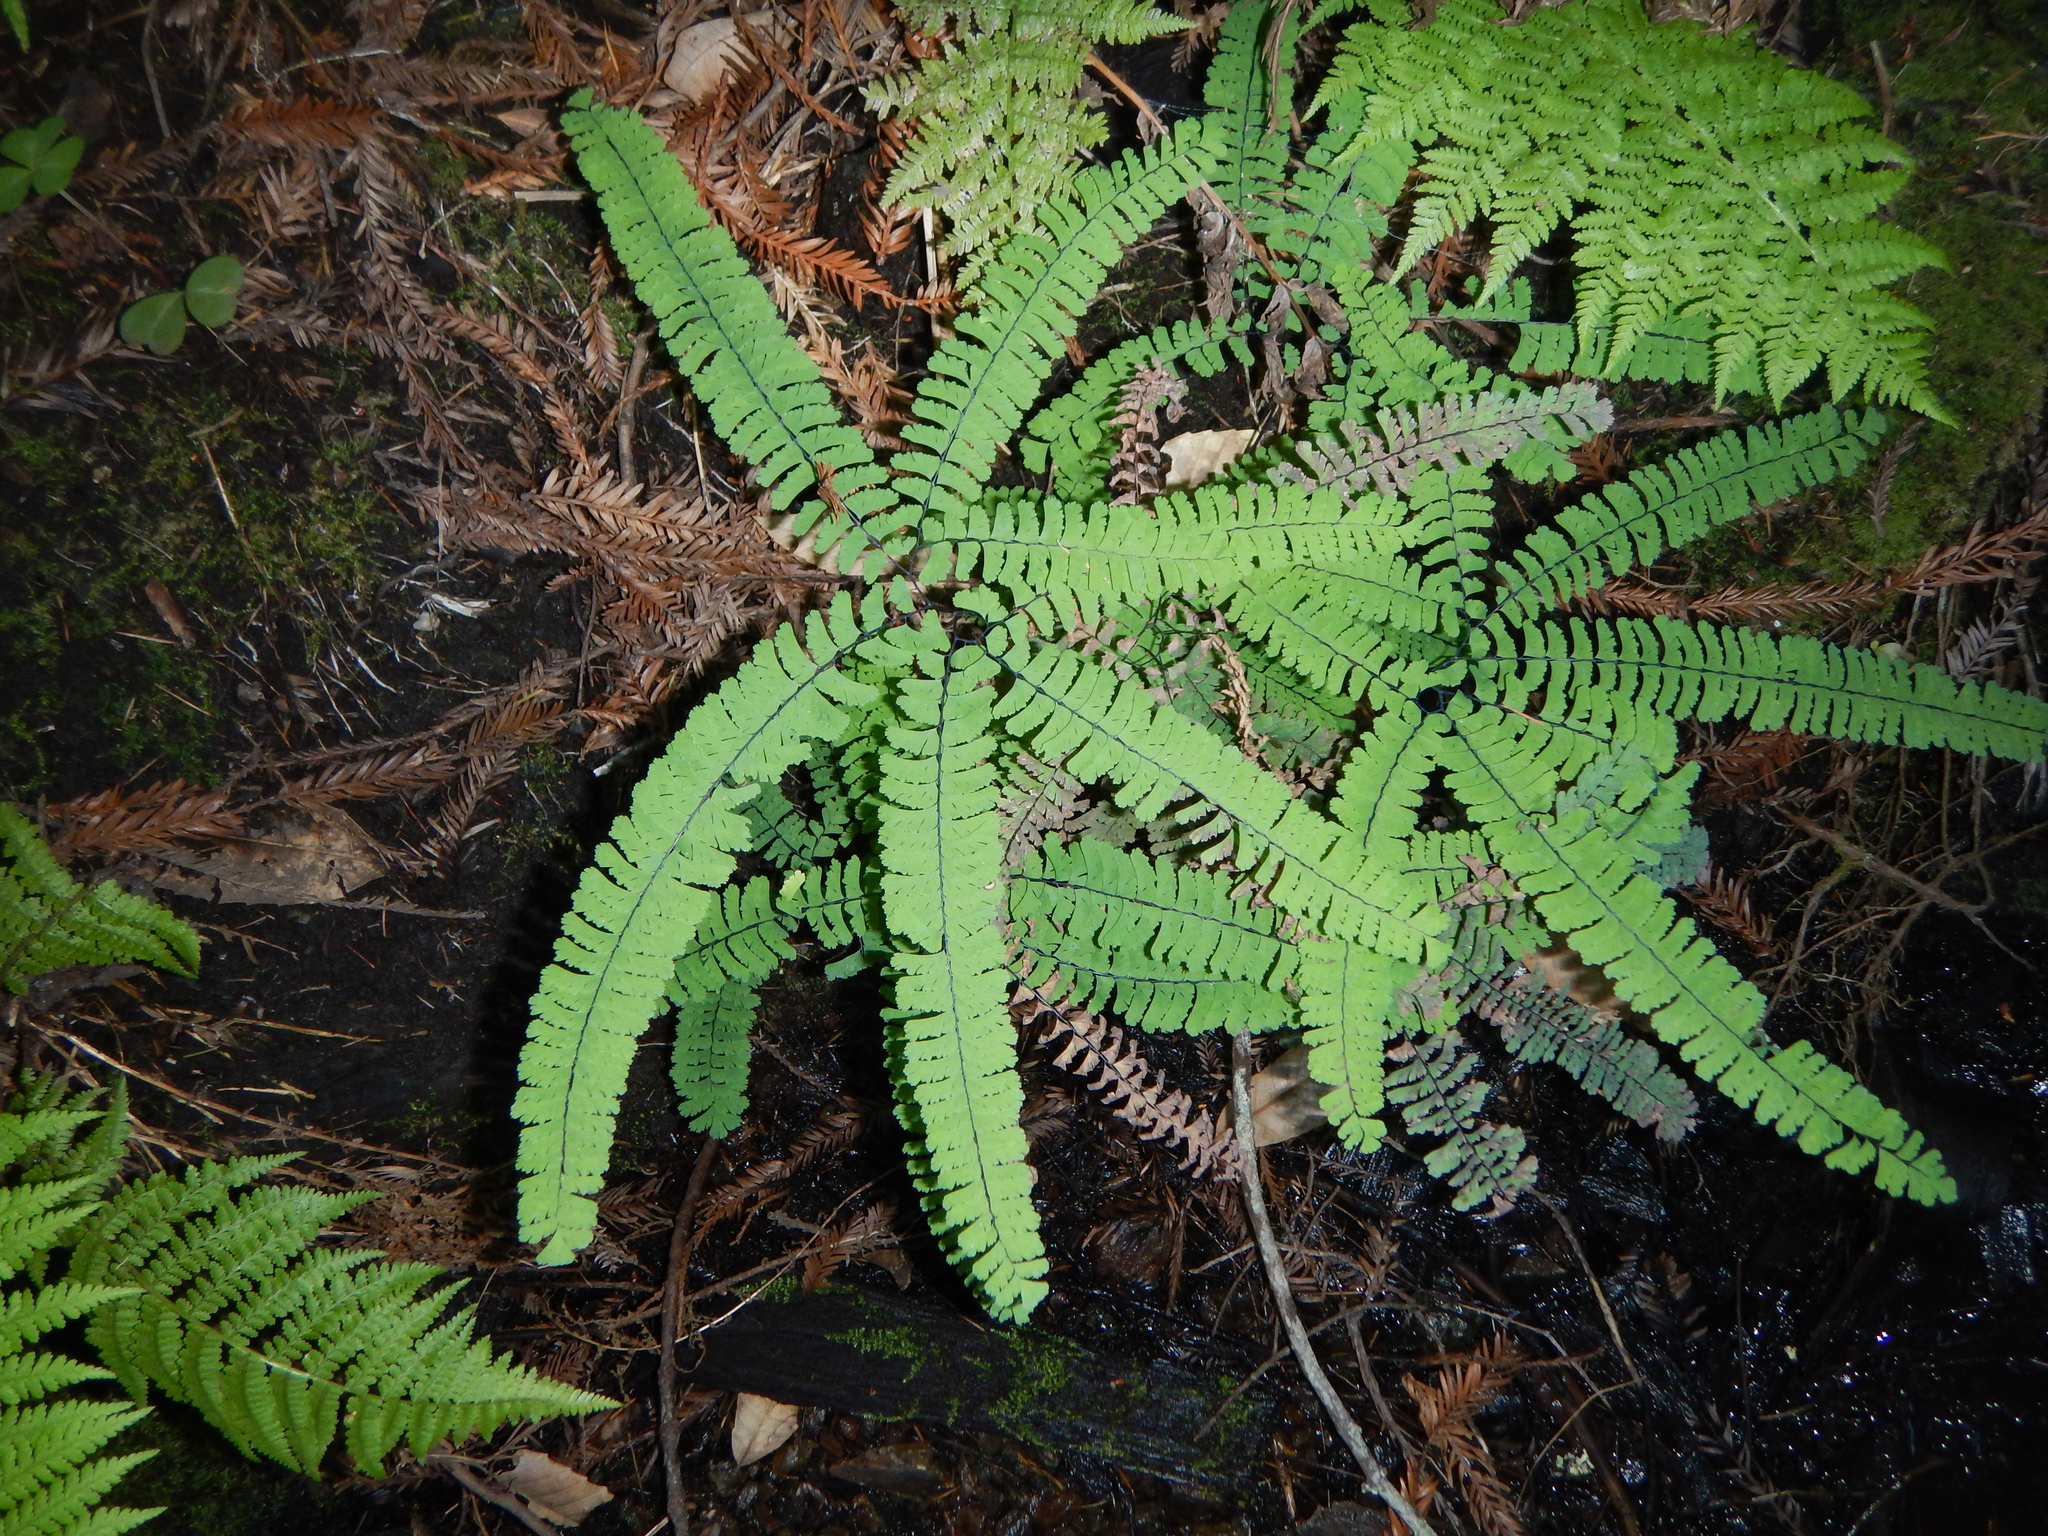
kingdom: Plantae
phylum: Tracheophyta
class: Polypodiopsida
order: Polypodiales
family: Pteridaceae
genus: Adiantum
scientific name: Adiantum aleuticum
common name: Aleutian maidenhair fern
